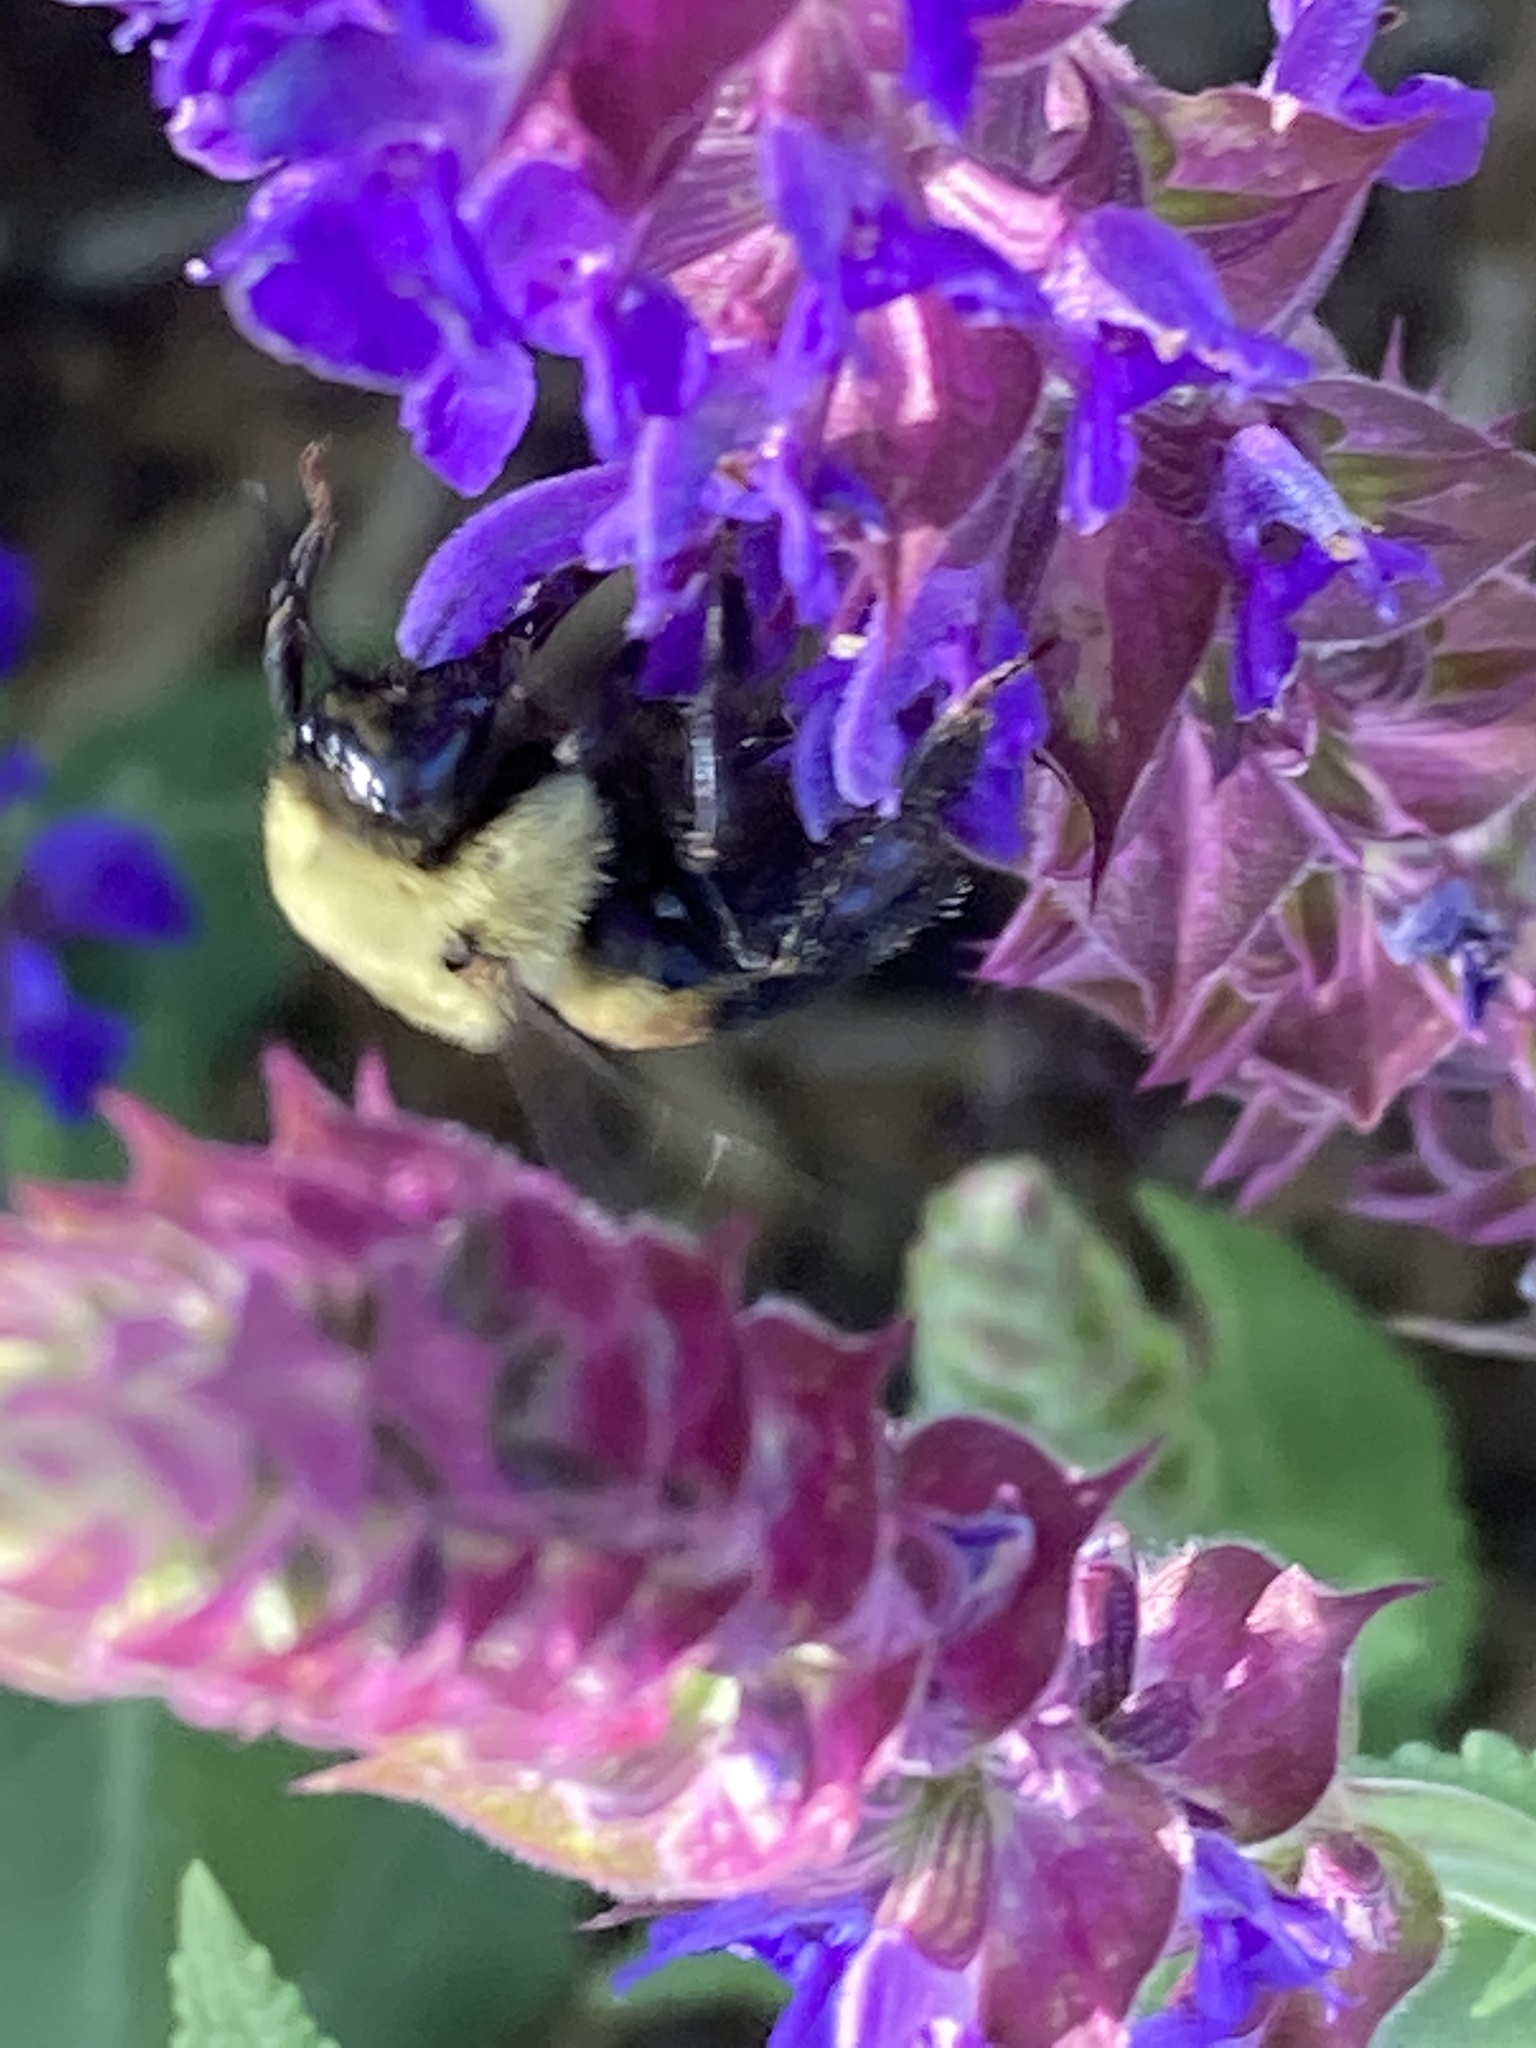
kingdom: Animalia
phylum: Arthropoda
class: Insecta
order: Hymenoptera
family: Apidae
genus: Bombus
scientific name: Bombus griseocollis
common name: Brown-belted bumble bee
